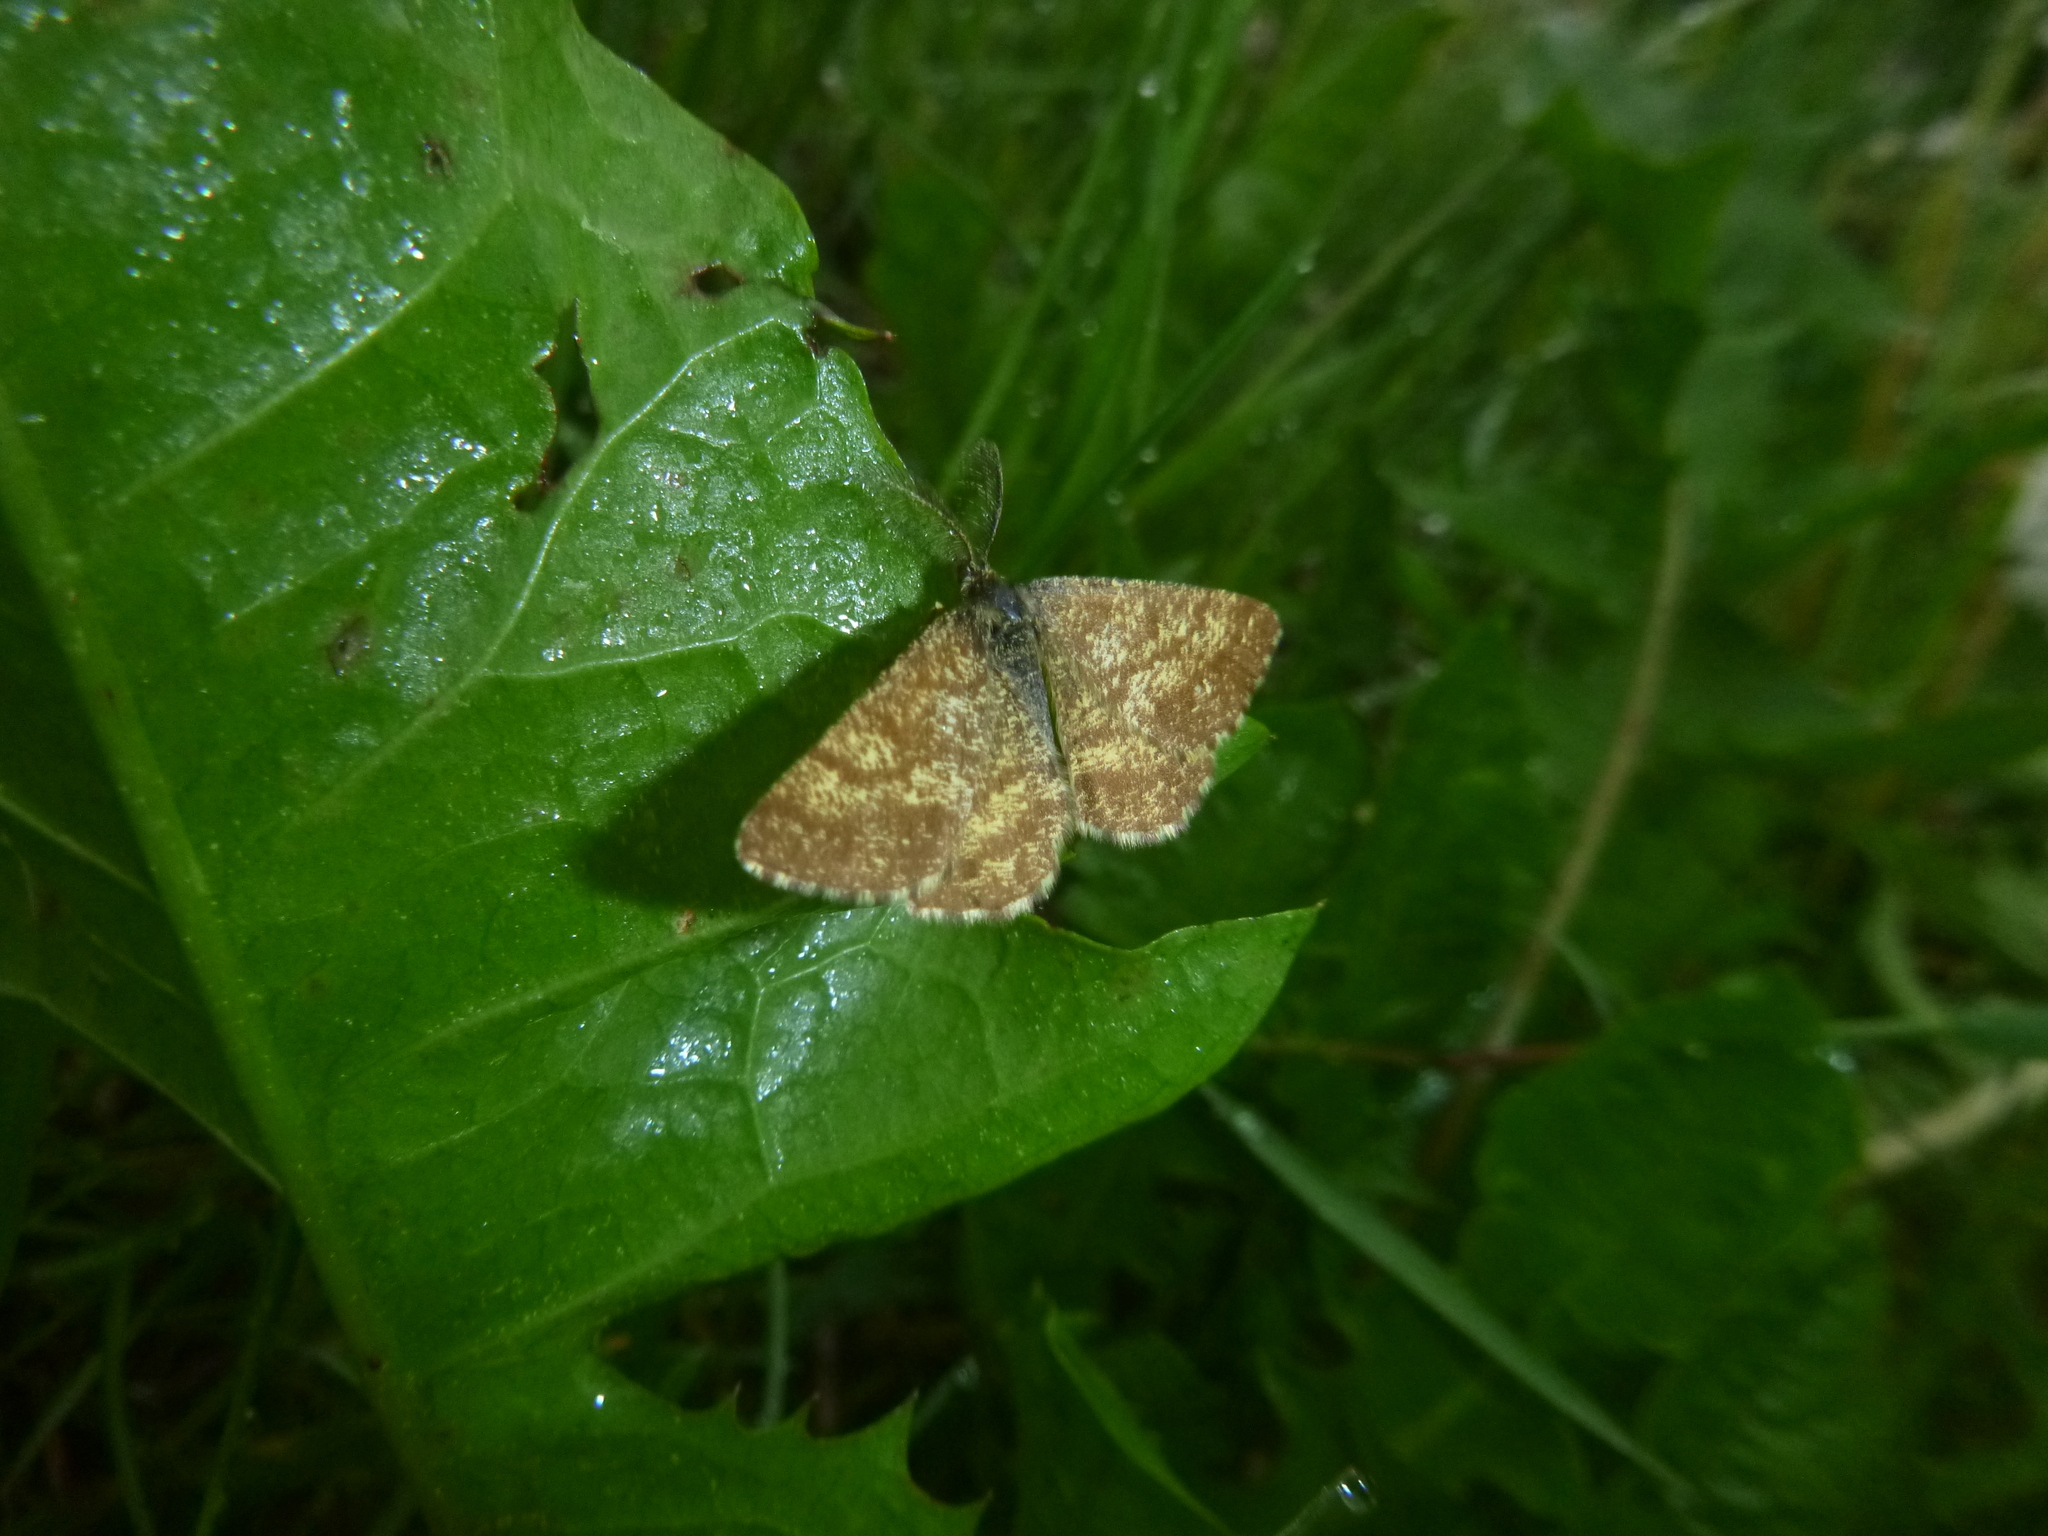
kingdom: Animalia
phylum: Arthropoda
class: Insecta
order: Lepidoptera
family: Geometridae
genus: Ematurga
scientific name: Ematurga atomaria
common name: Common heath
